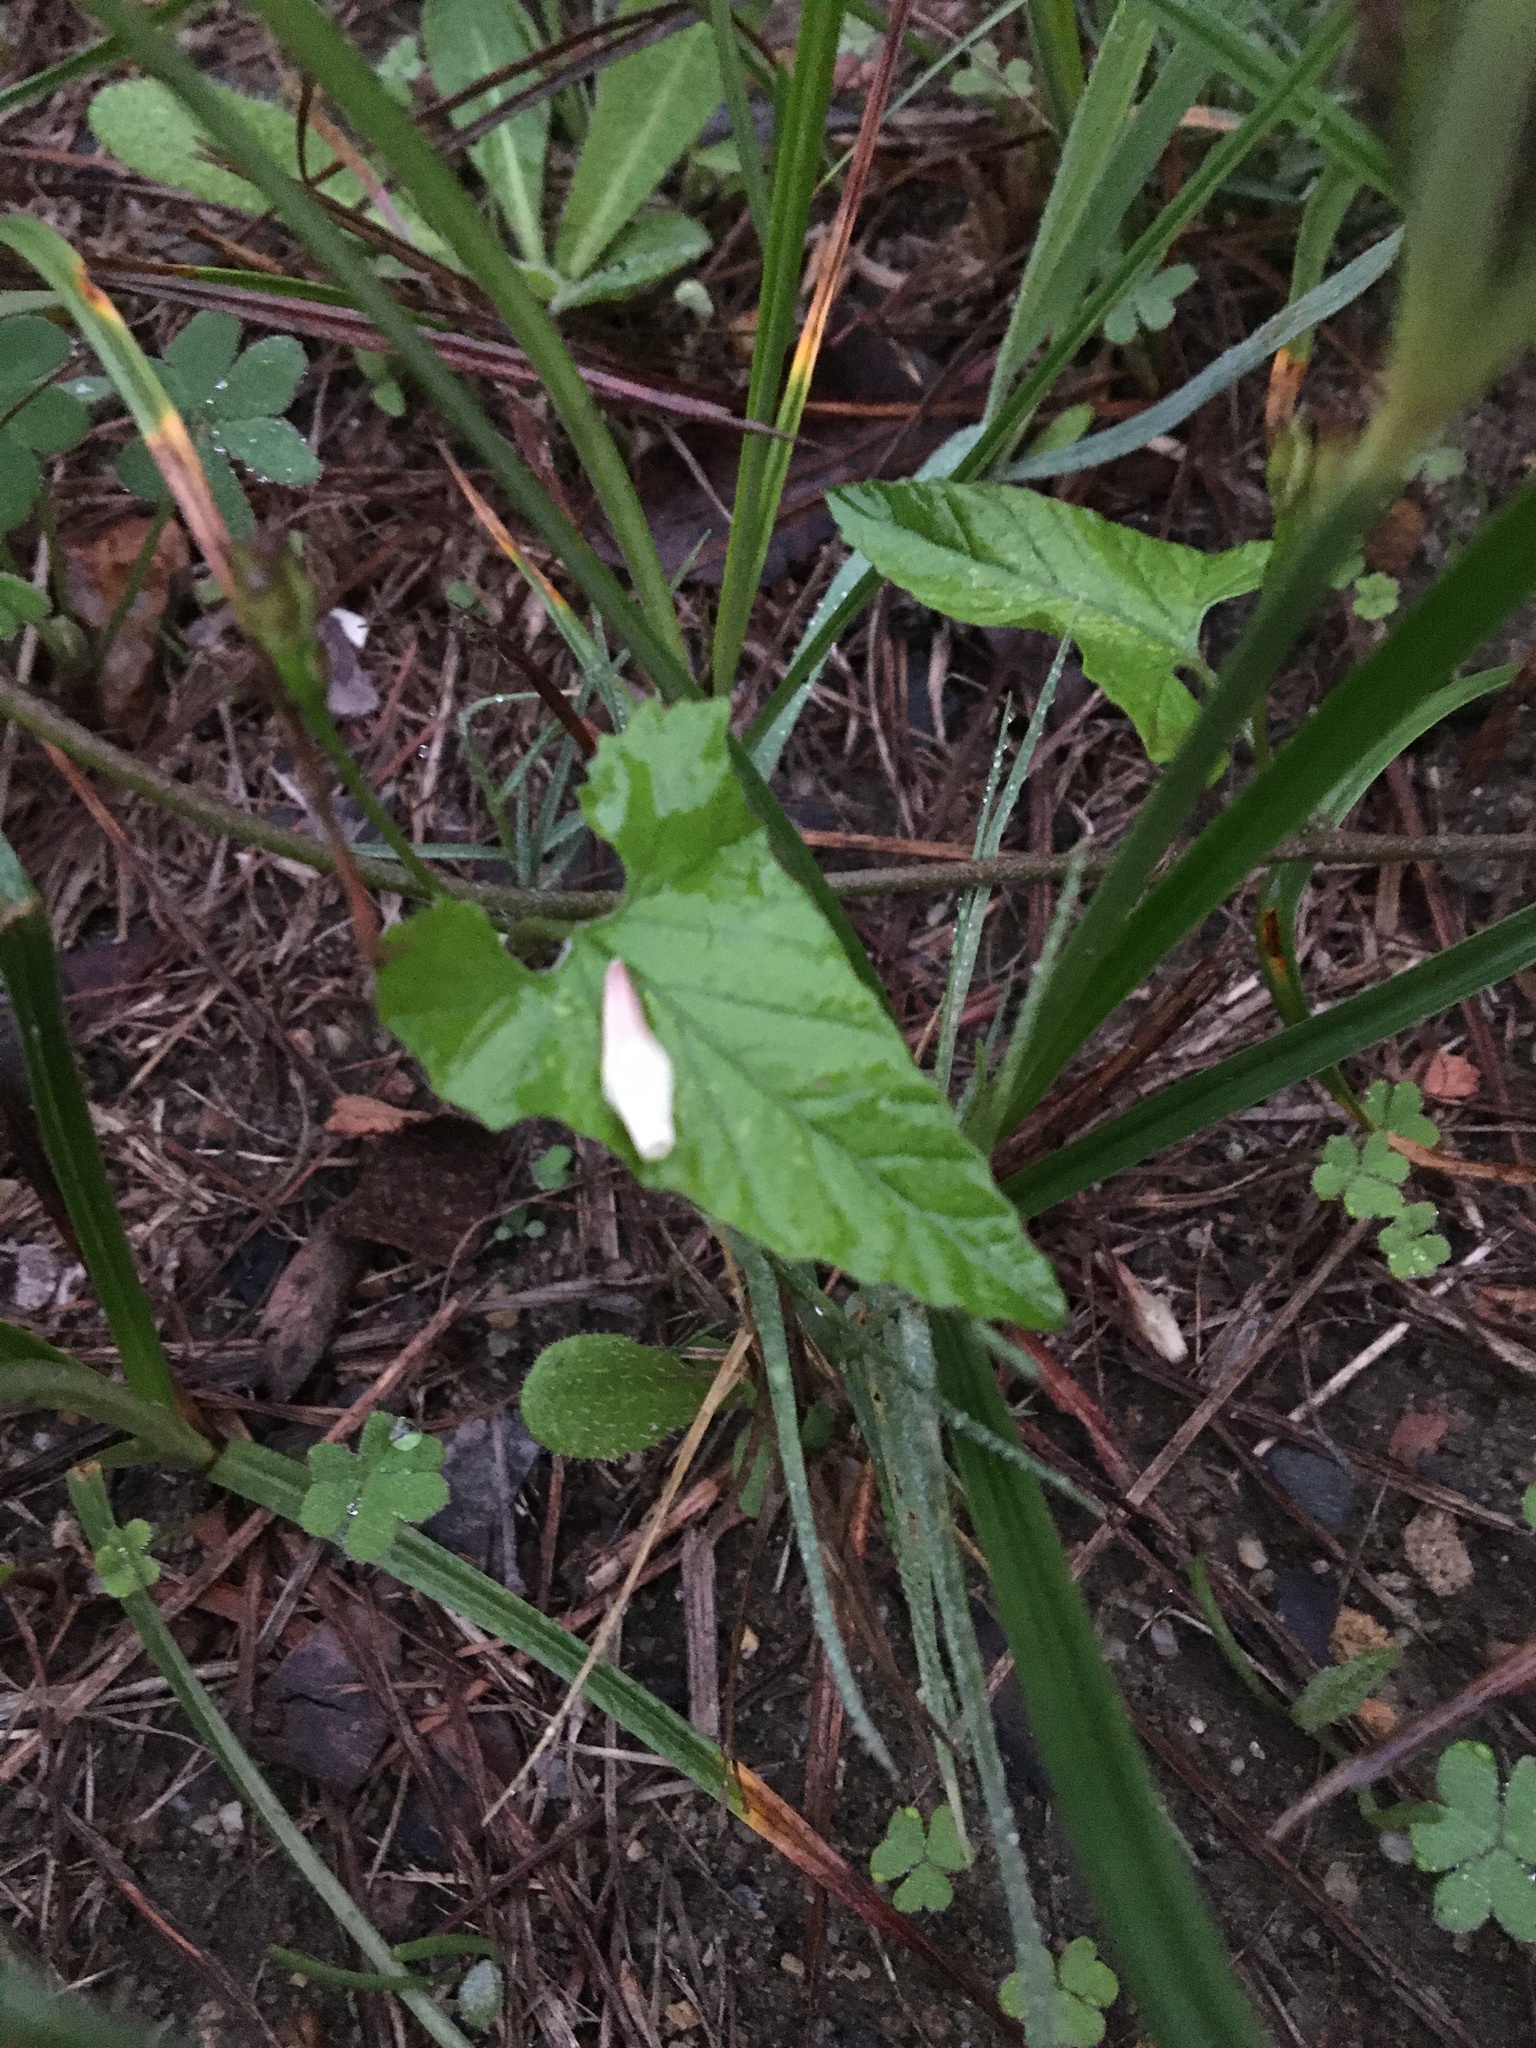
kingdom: Plantae
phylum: Tracheophyta
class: Magnoliopsida
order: Solanales
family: Convolvulaceae
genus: Convolvulus
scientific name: Convolvulus farinosus
